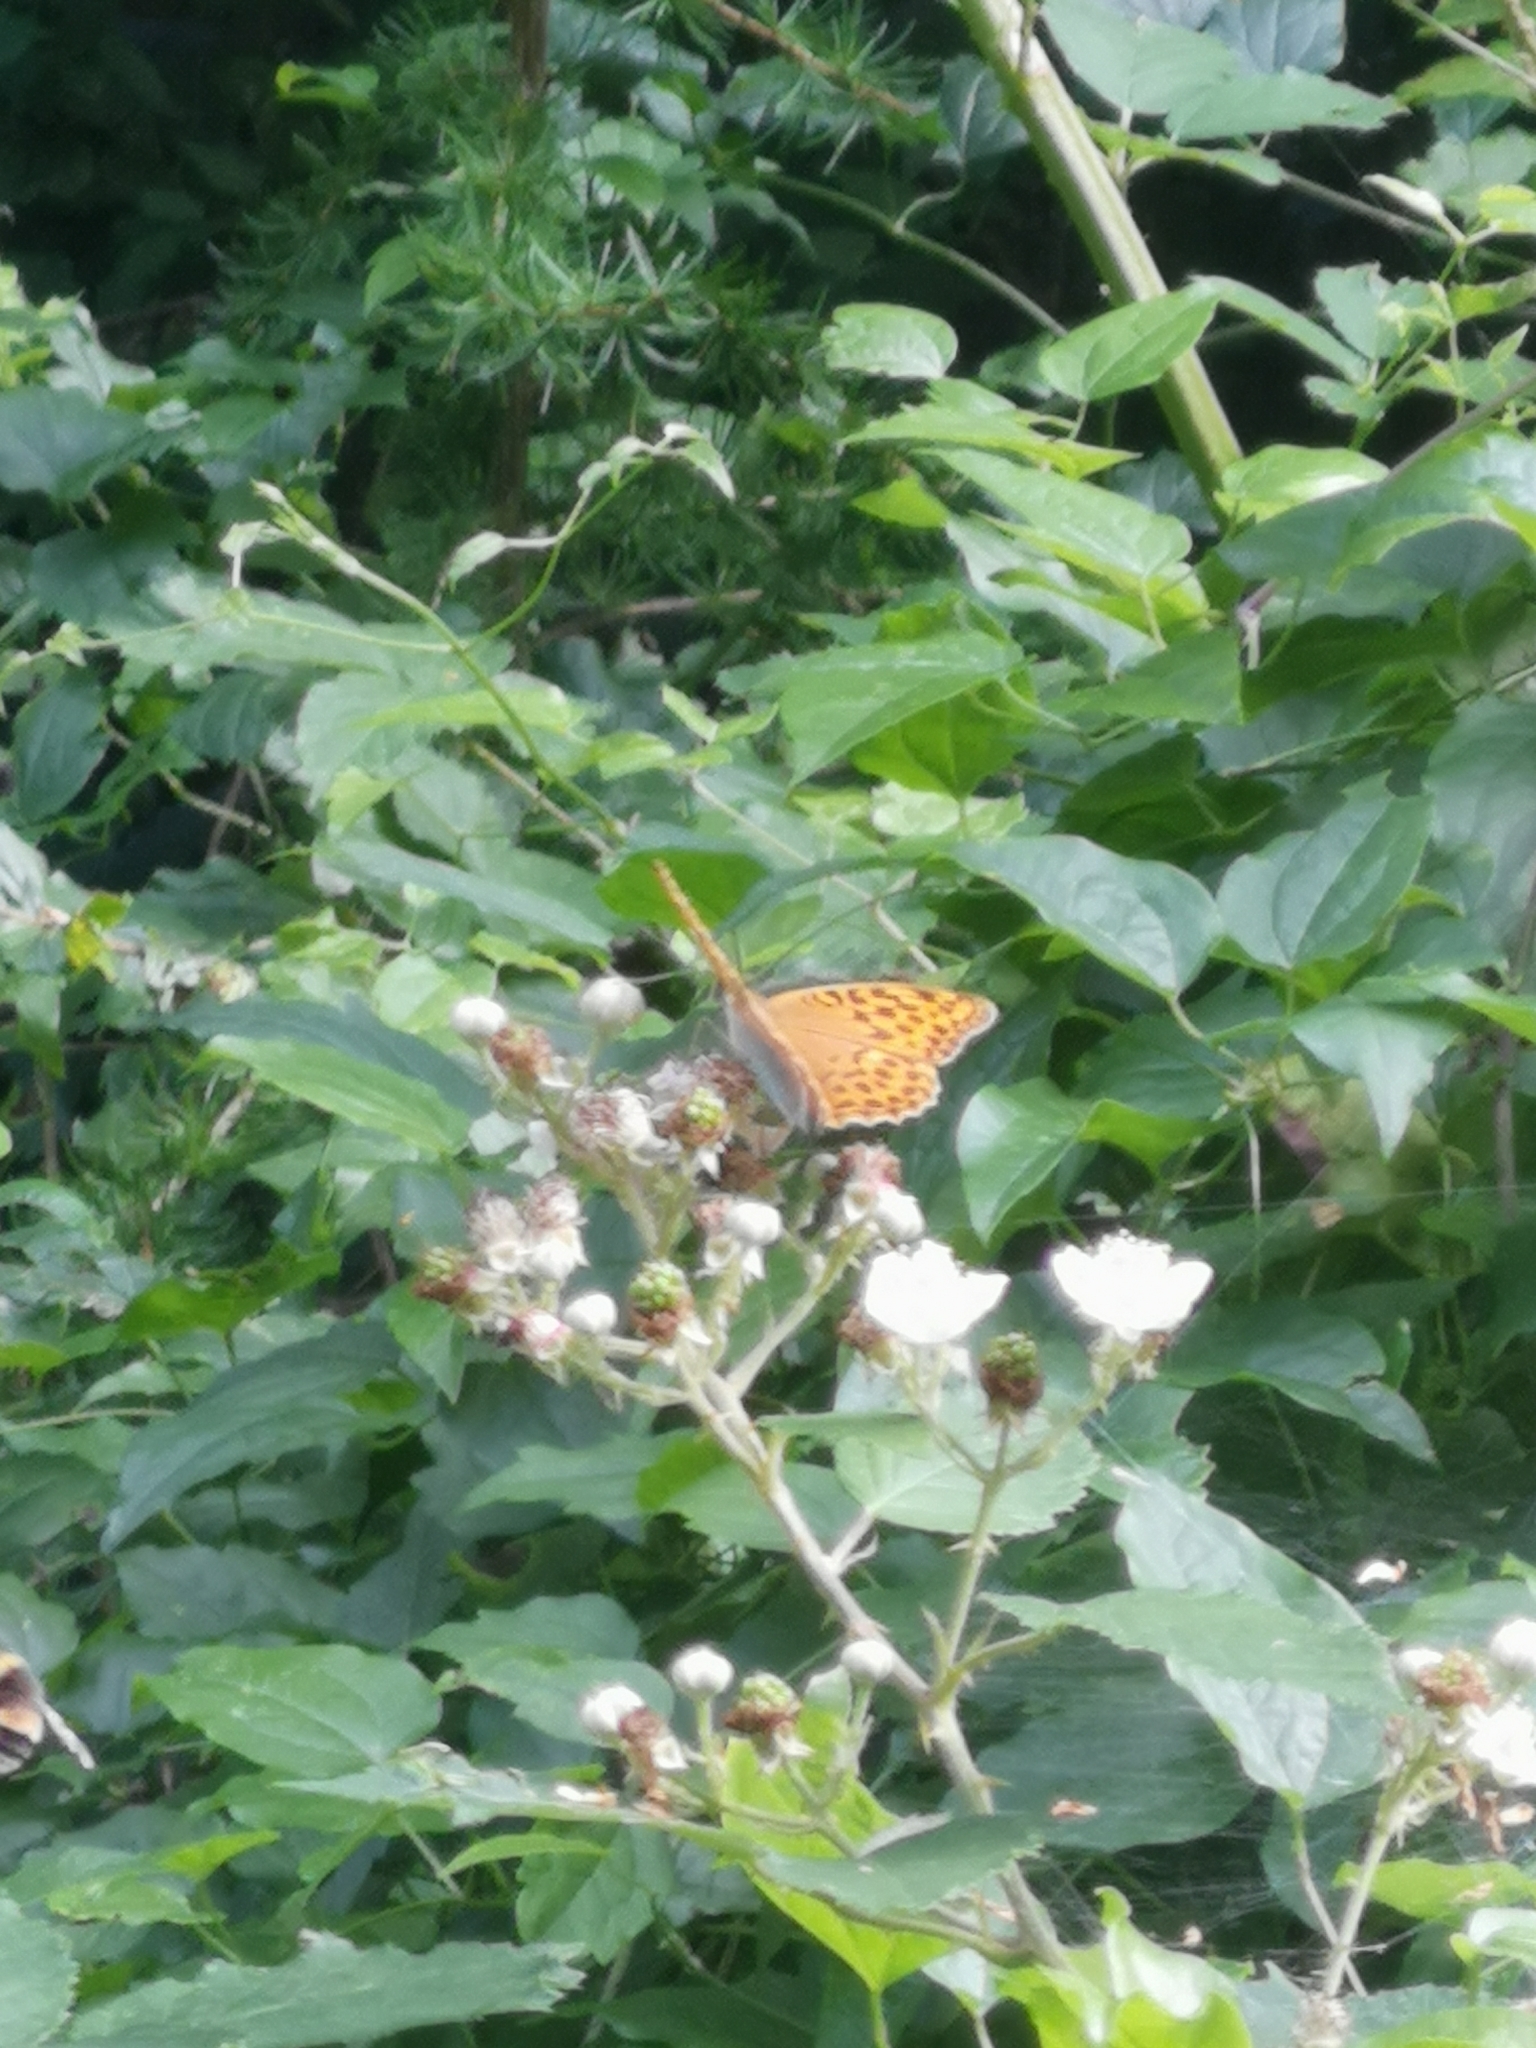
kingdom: Animalia
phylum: Arthropoda
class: Insecta
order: Lepidoptera
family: Nymphalidae
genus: Argynnis
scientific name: Argynnis paphia
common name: Silver-washed fritillary
